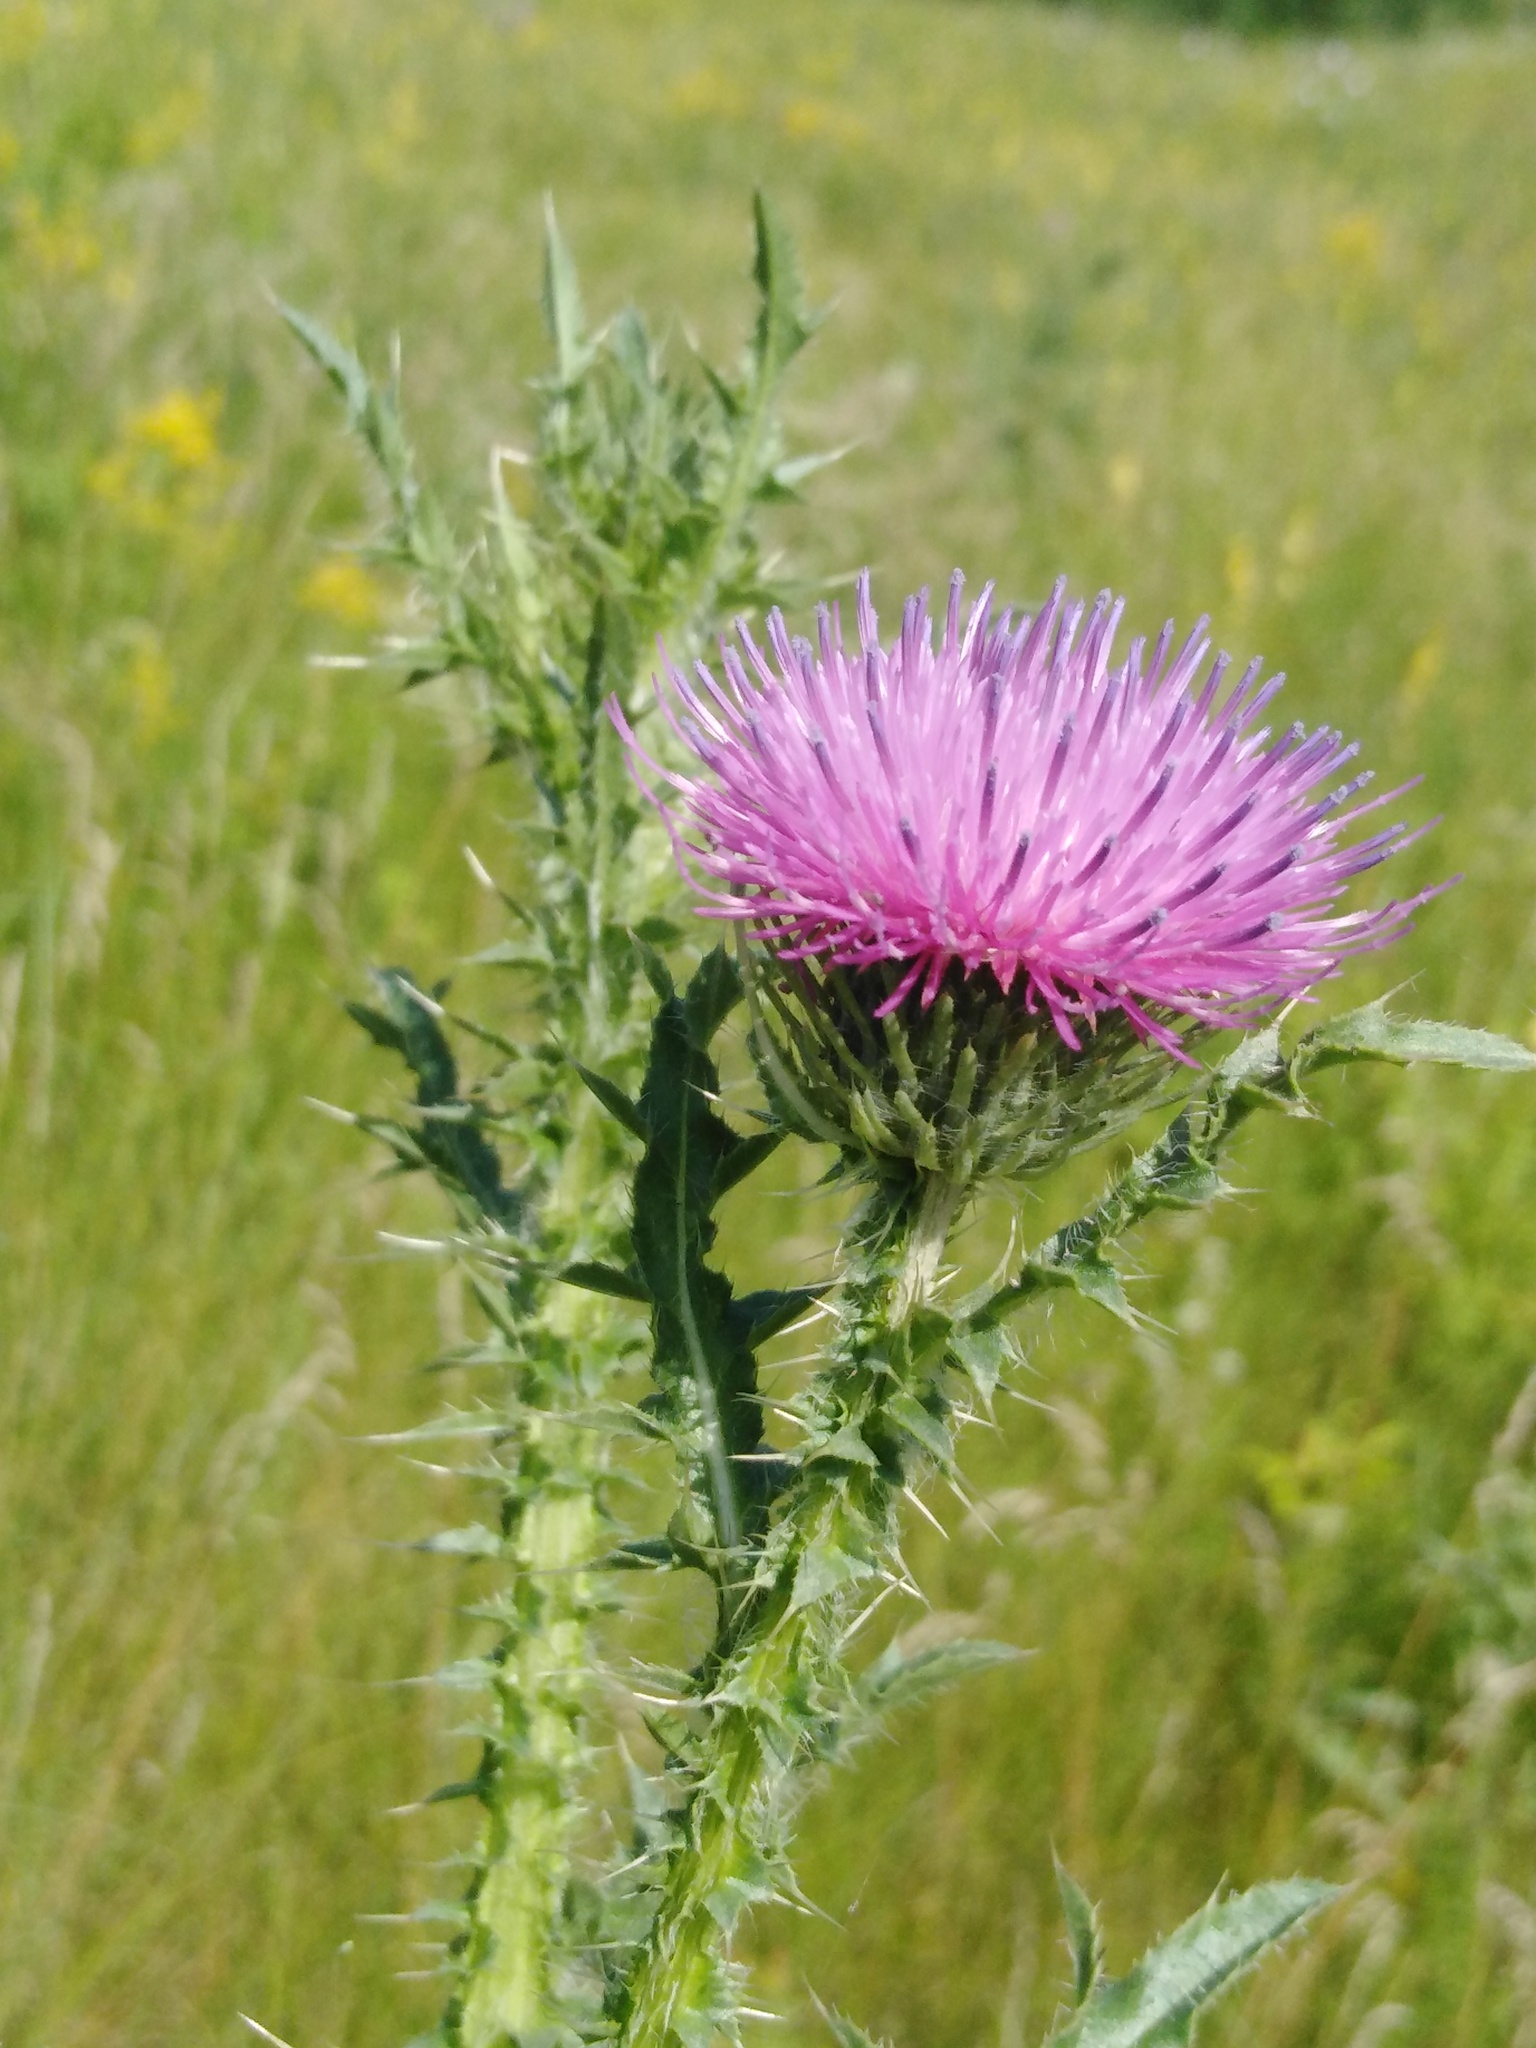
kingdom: Plantae
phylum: Tracheophyta
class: Magnoliopsida
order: Asterales
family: Asteraceae
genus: Carduus
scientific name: Carduus acanthoides
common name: Plumeless thistle
